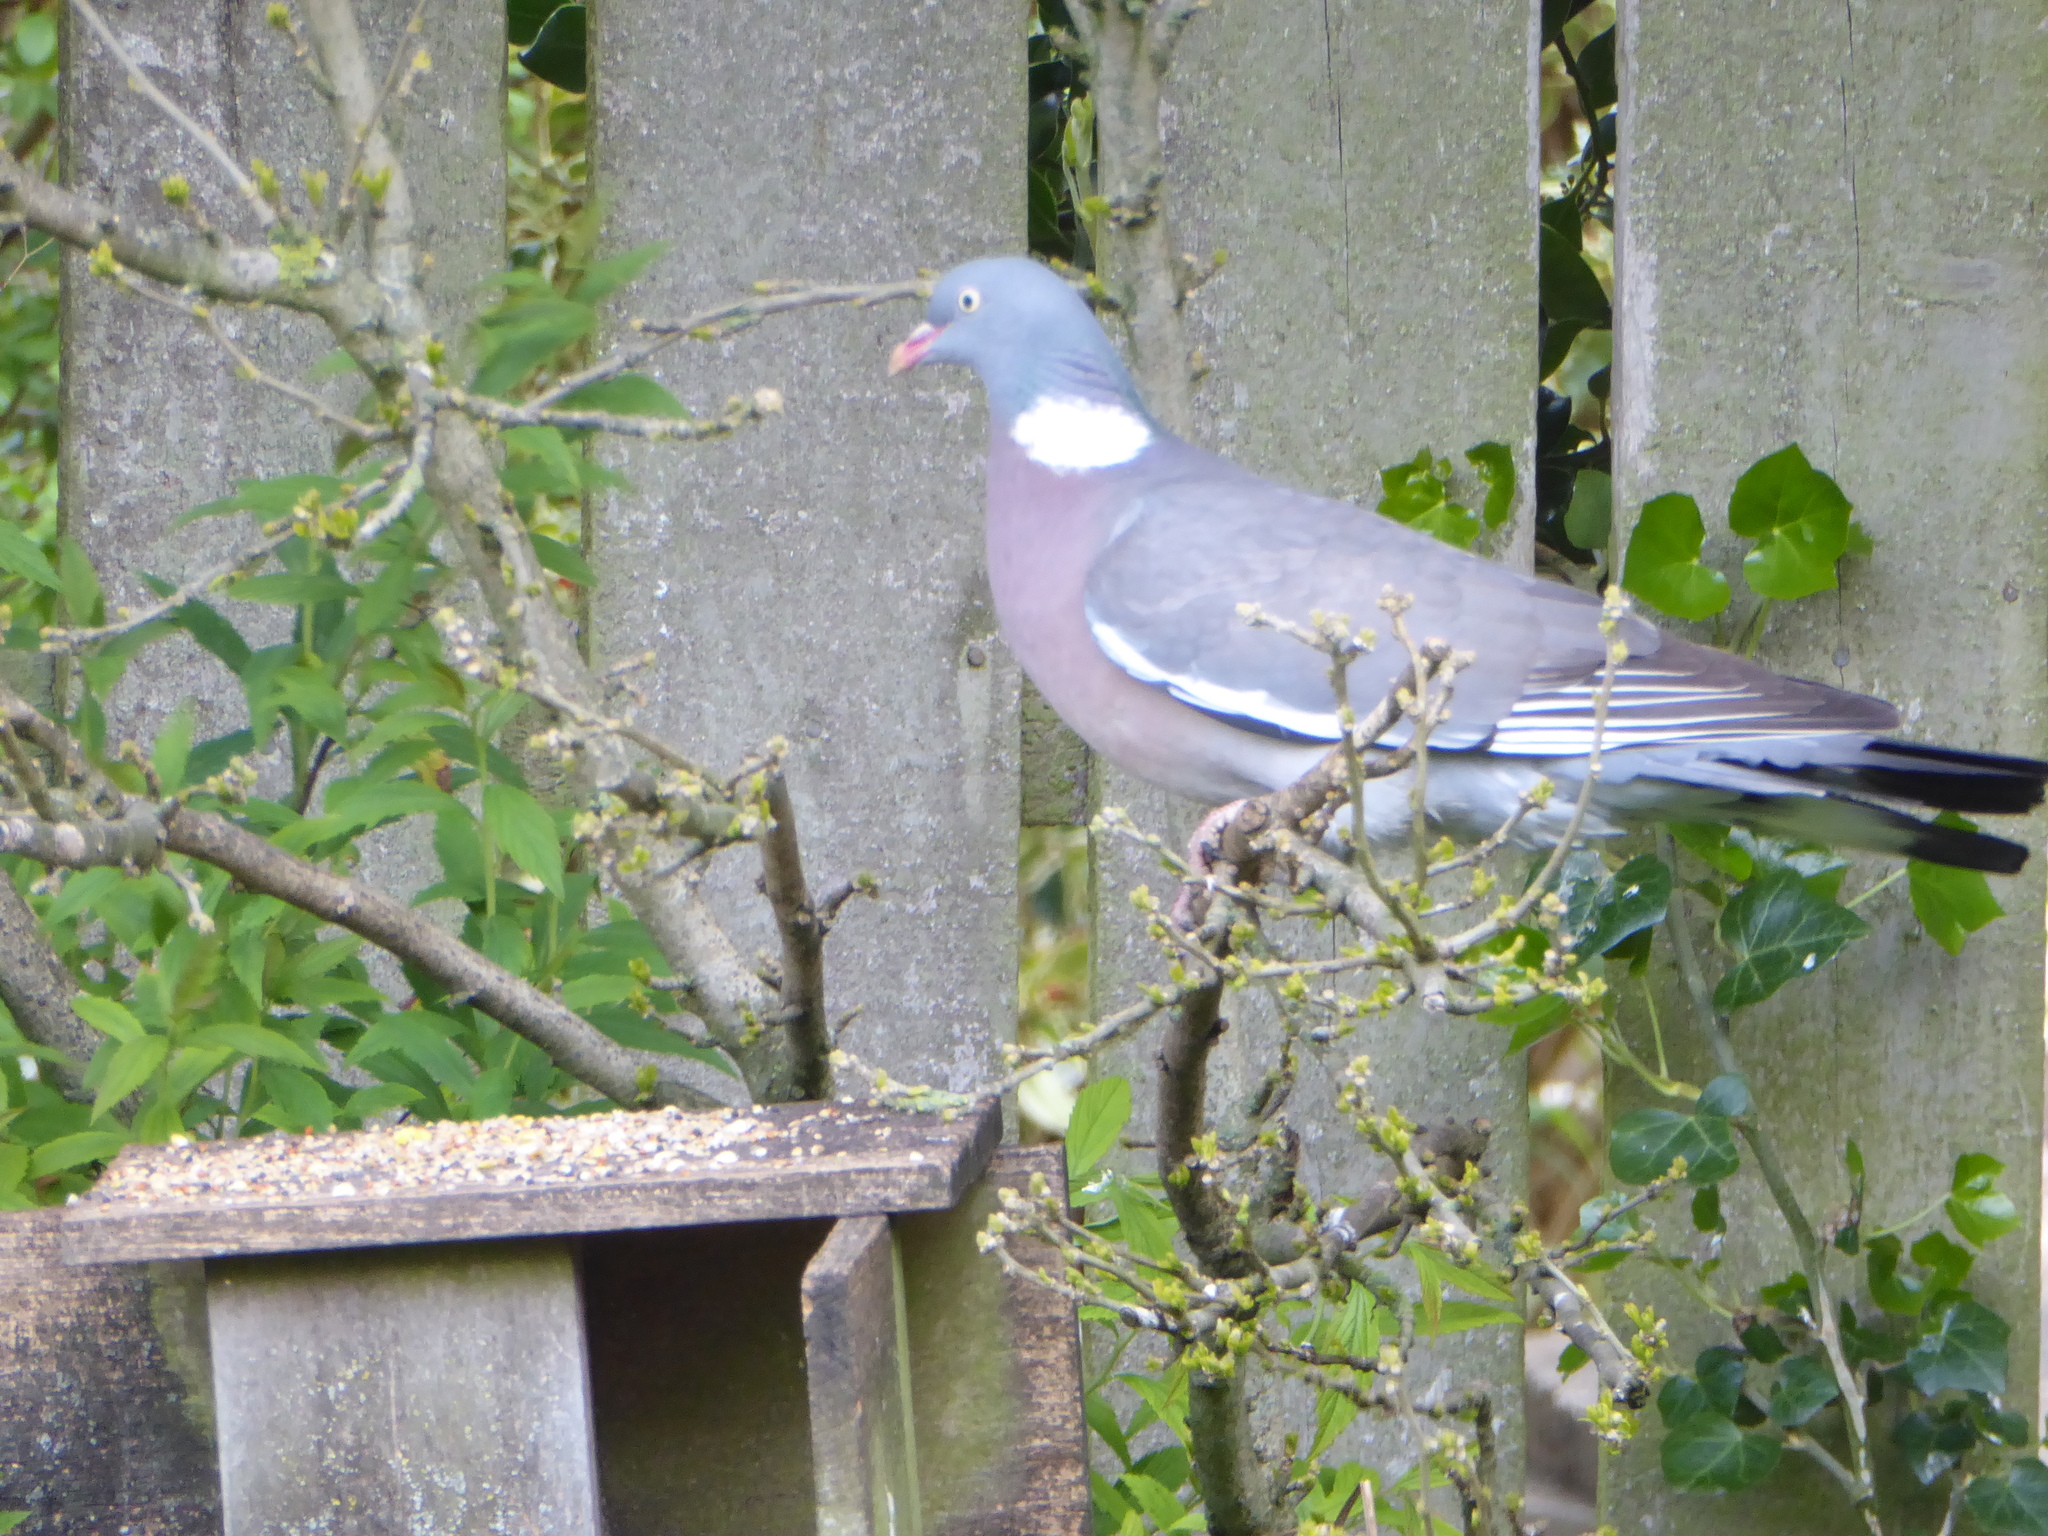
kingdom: Animalia
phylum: Chordata
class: Aves
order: Columbiformes
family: Columbidae
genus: Columba
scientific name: Columba palumbus
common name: Common wood pigeon
